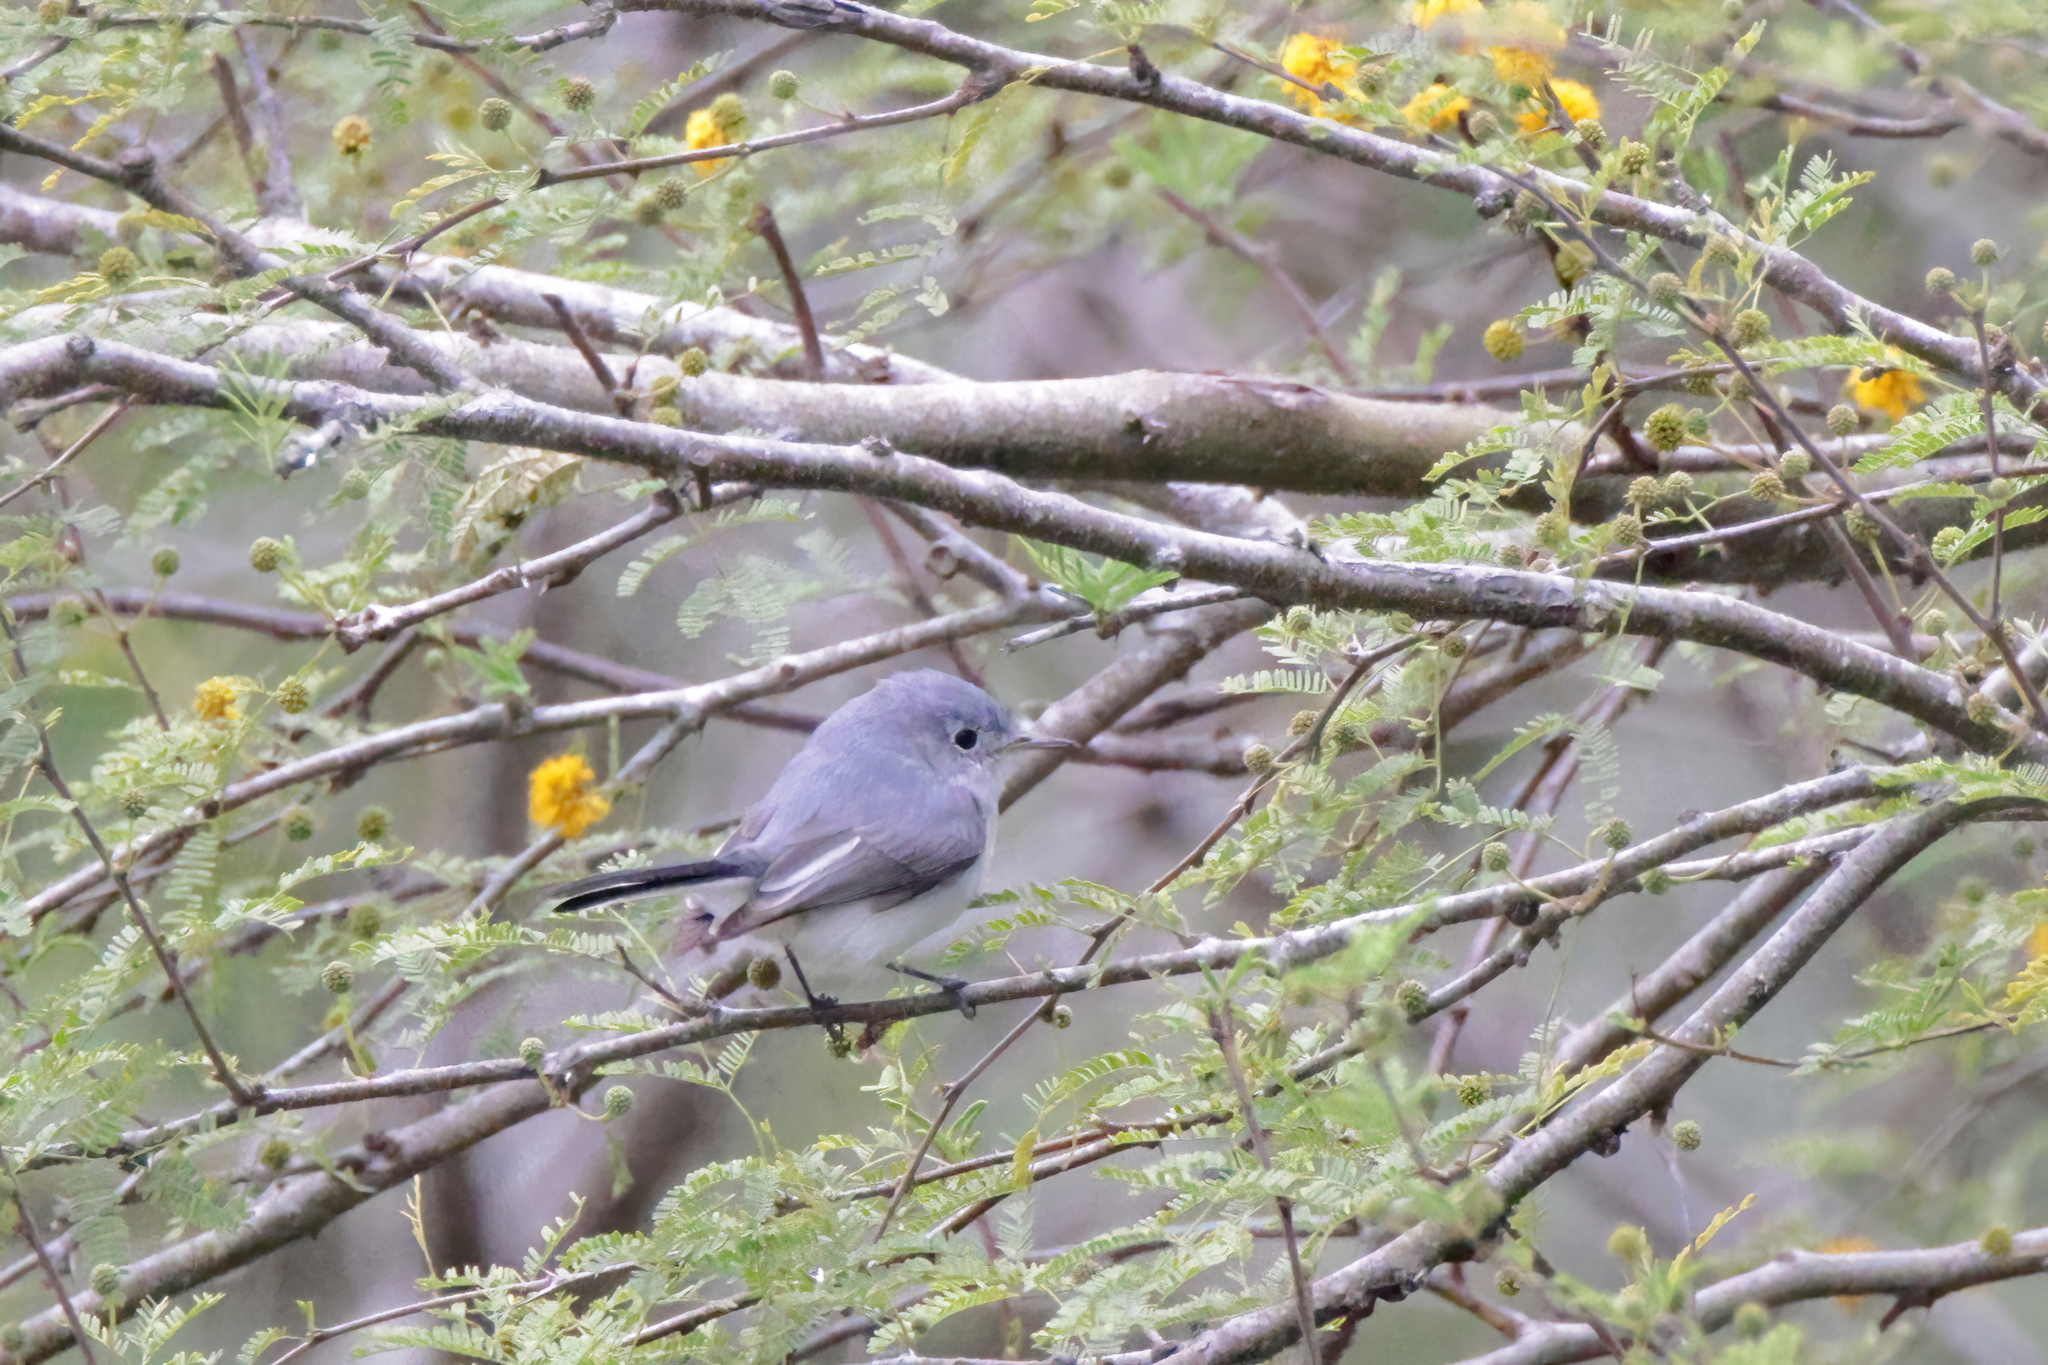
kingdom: Animalia
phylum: Chordata
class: Aves
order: Passeriformes
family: Polioptilidae
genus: Polioptila
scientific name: Polioptila caerulea
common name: Blue-gray gnatcatcher
